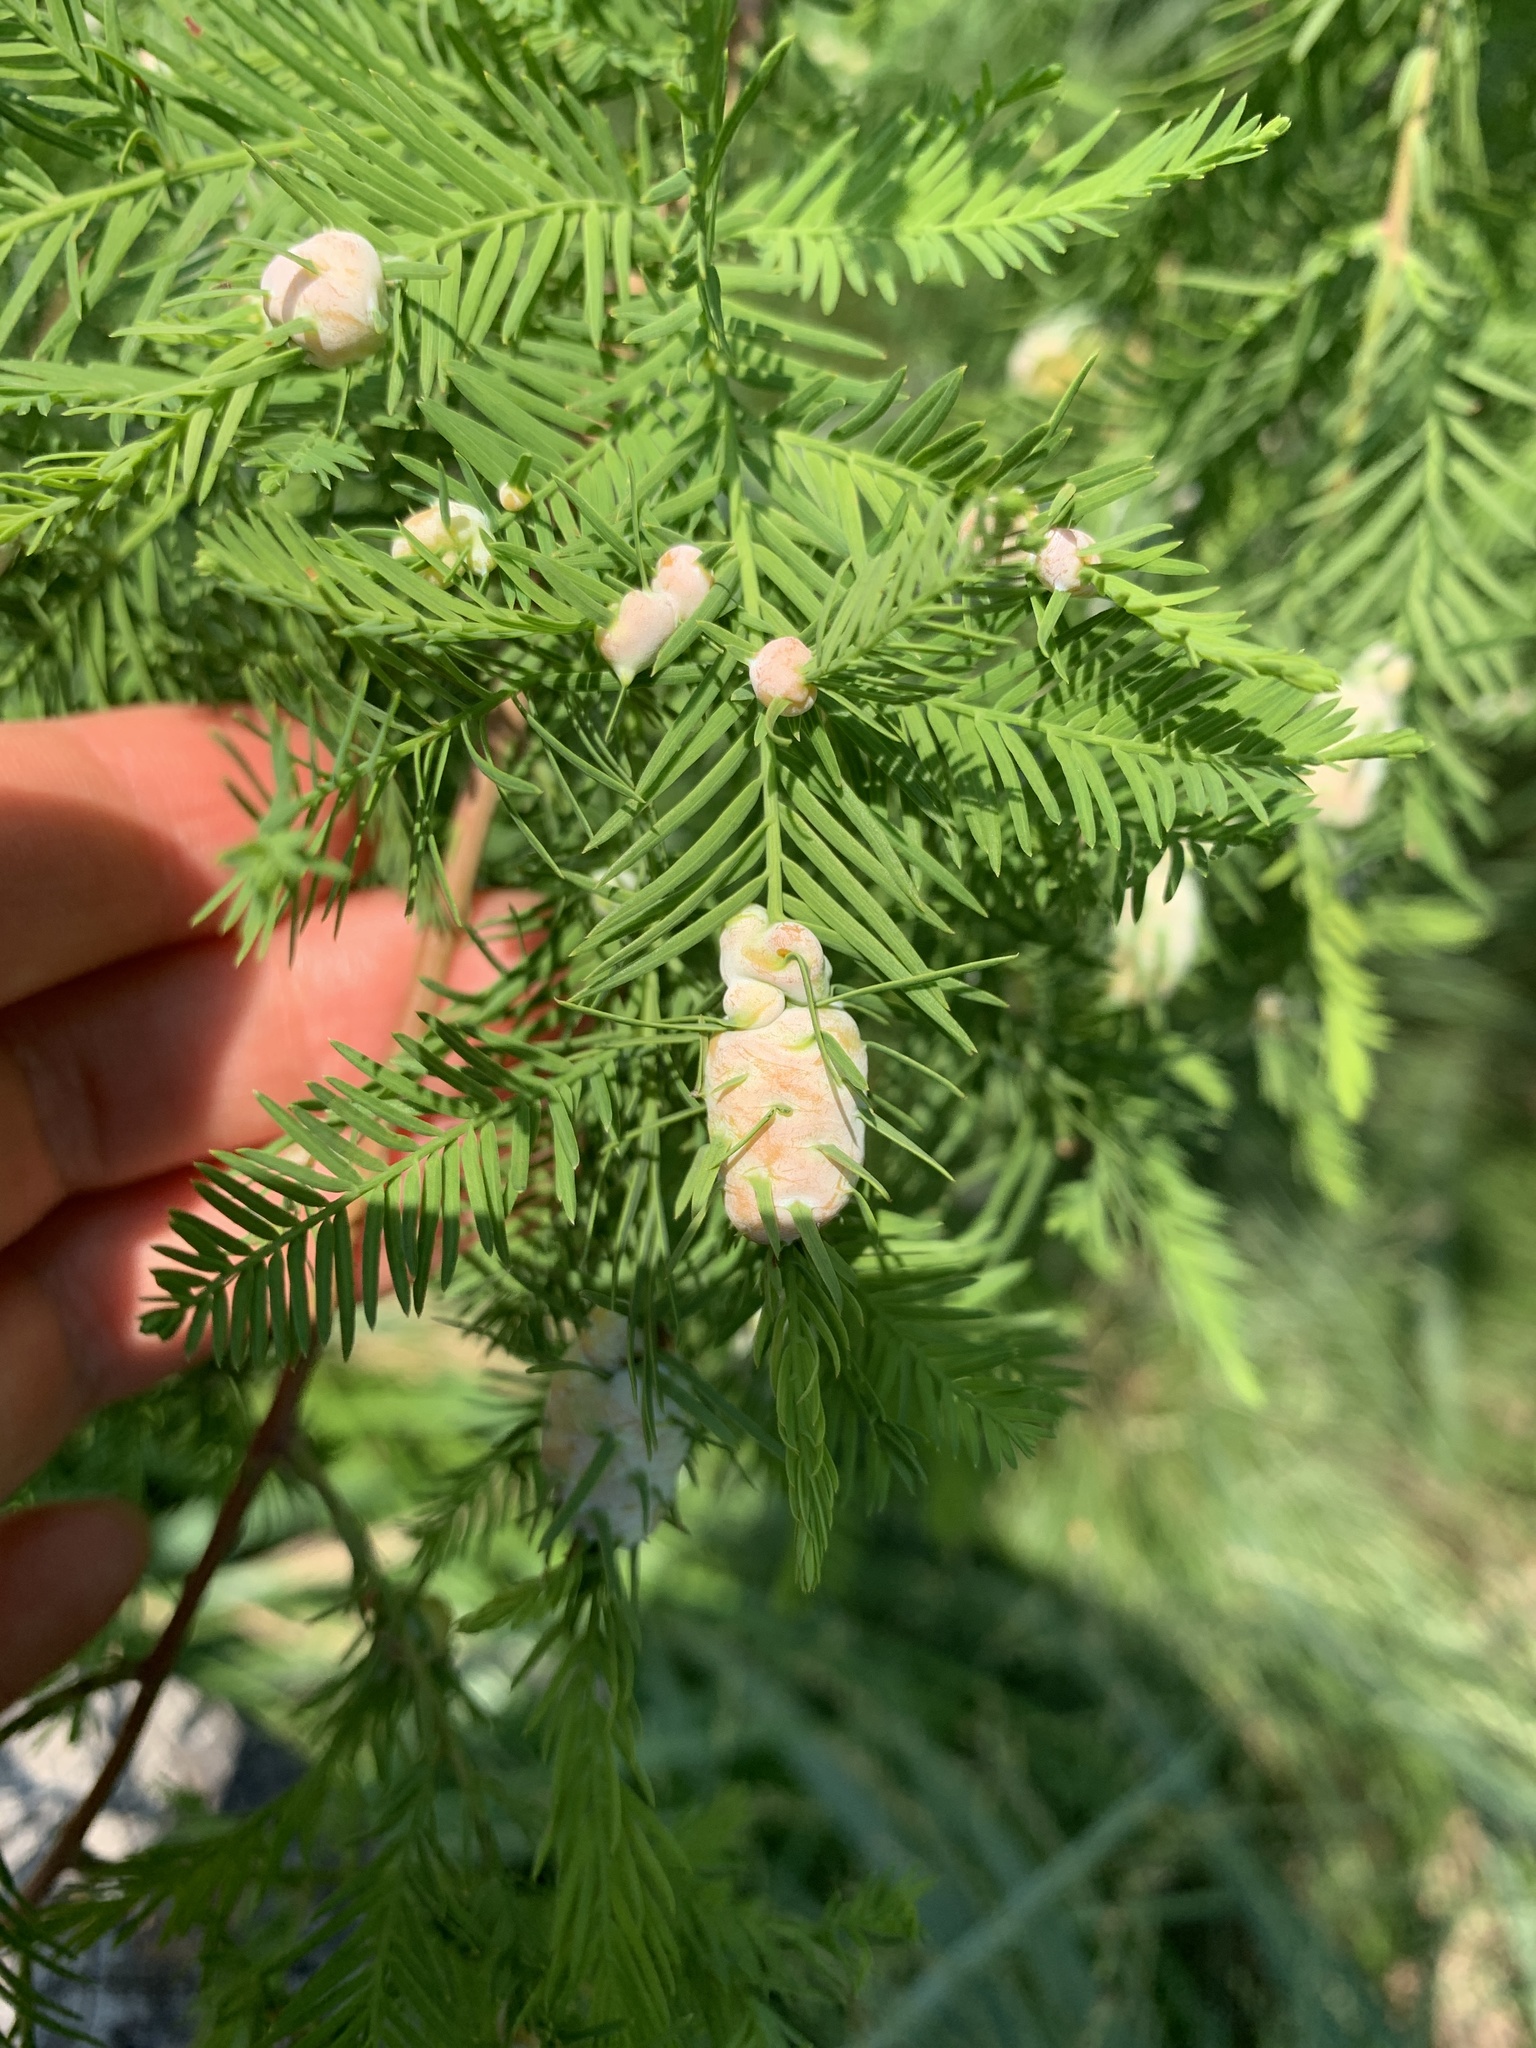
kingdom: Animalia
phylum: Arthropoda
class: Insecta
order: Diptera
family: Cecidomyiidae
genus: Taxodiomyia
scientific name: Taxodiomyia cupressiananassa
